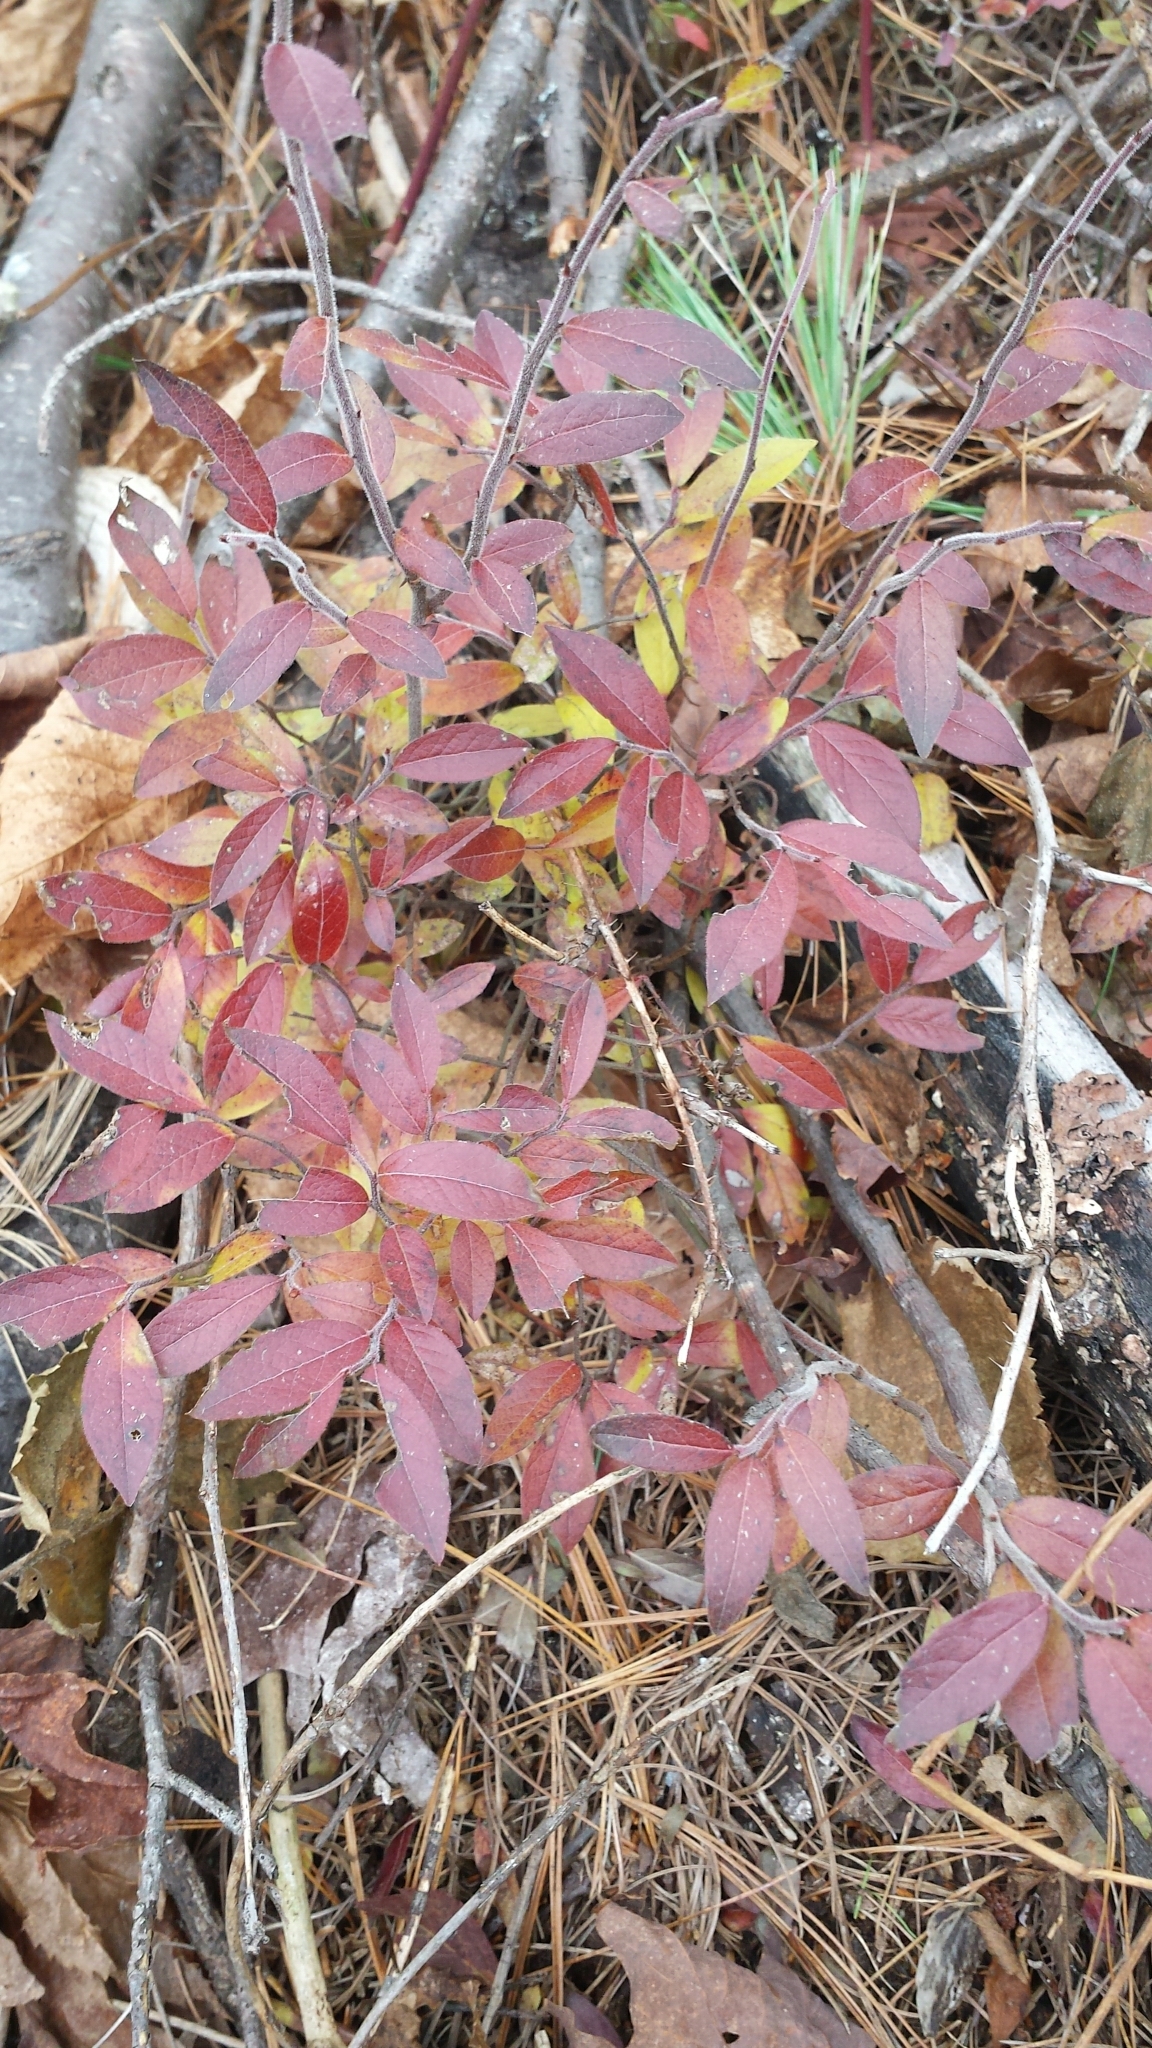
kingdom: Plantae
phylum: Tracheophyta
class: Magnoliopsida
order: Ericales
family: Ericaceae
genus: Vaccinium
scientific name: Vaccinium angustifolium
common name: Early lowbush blueberry
